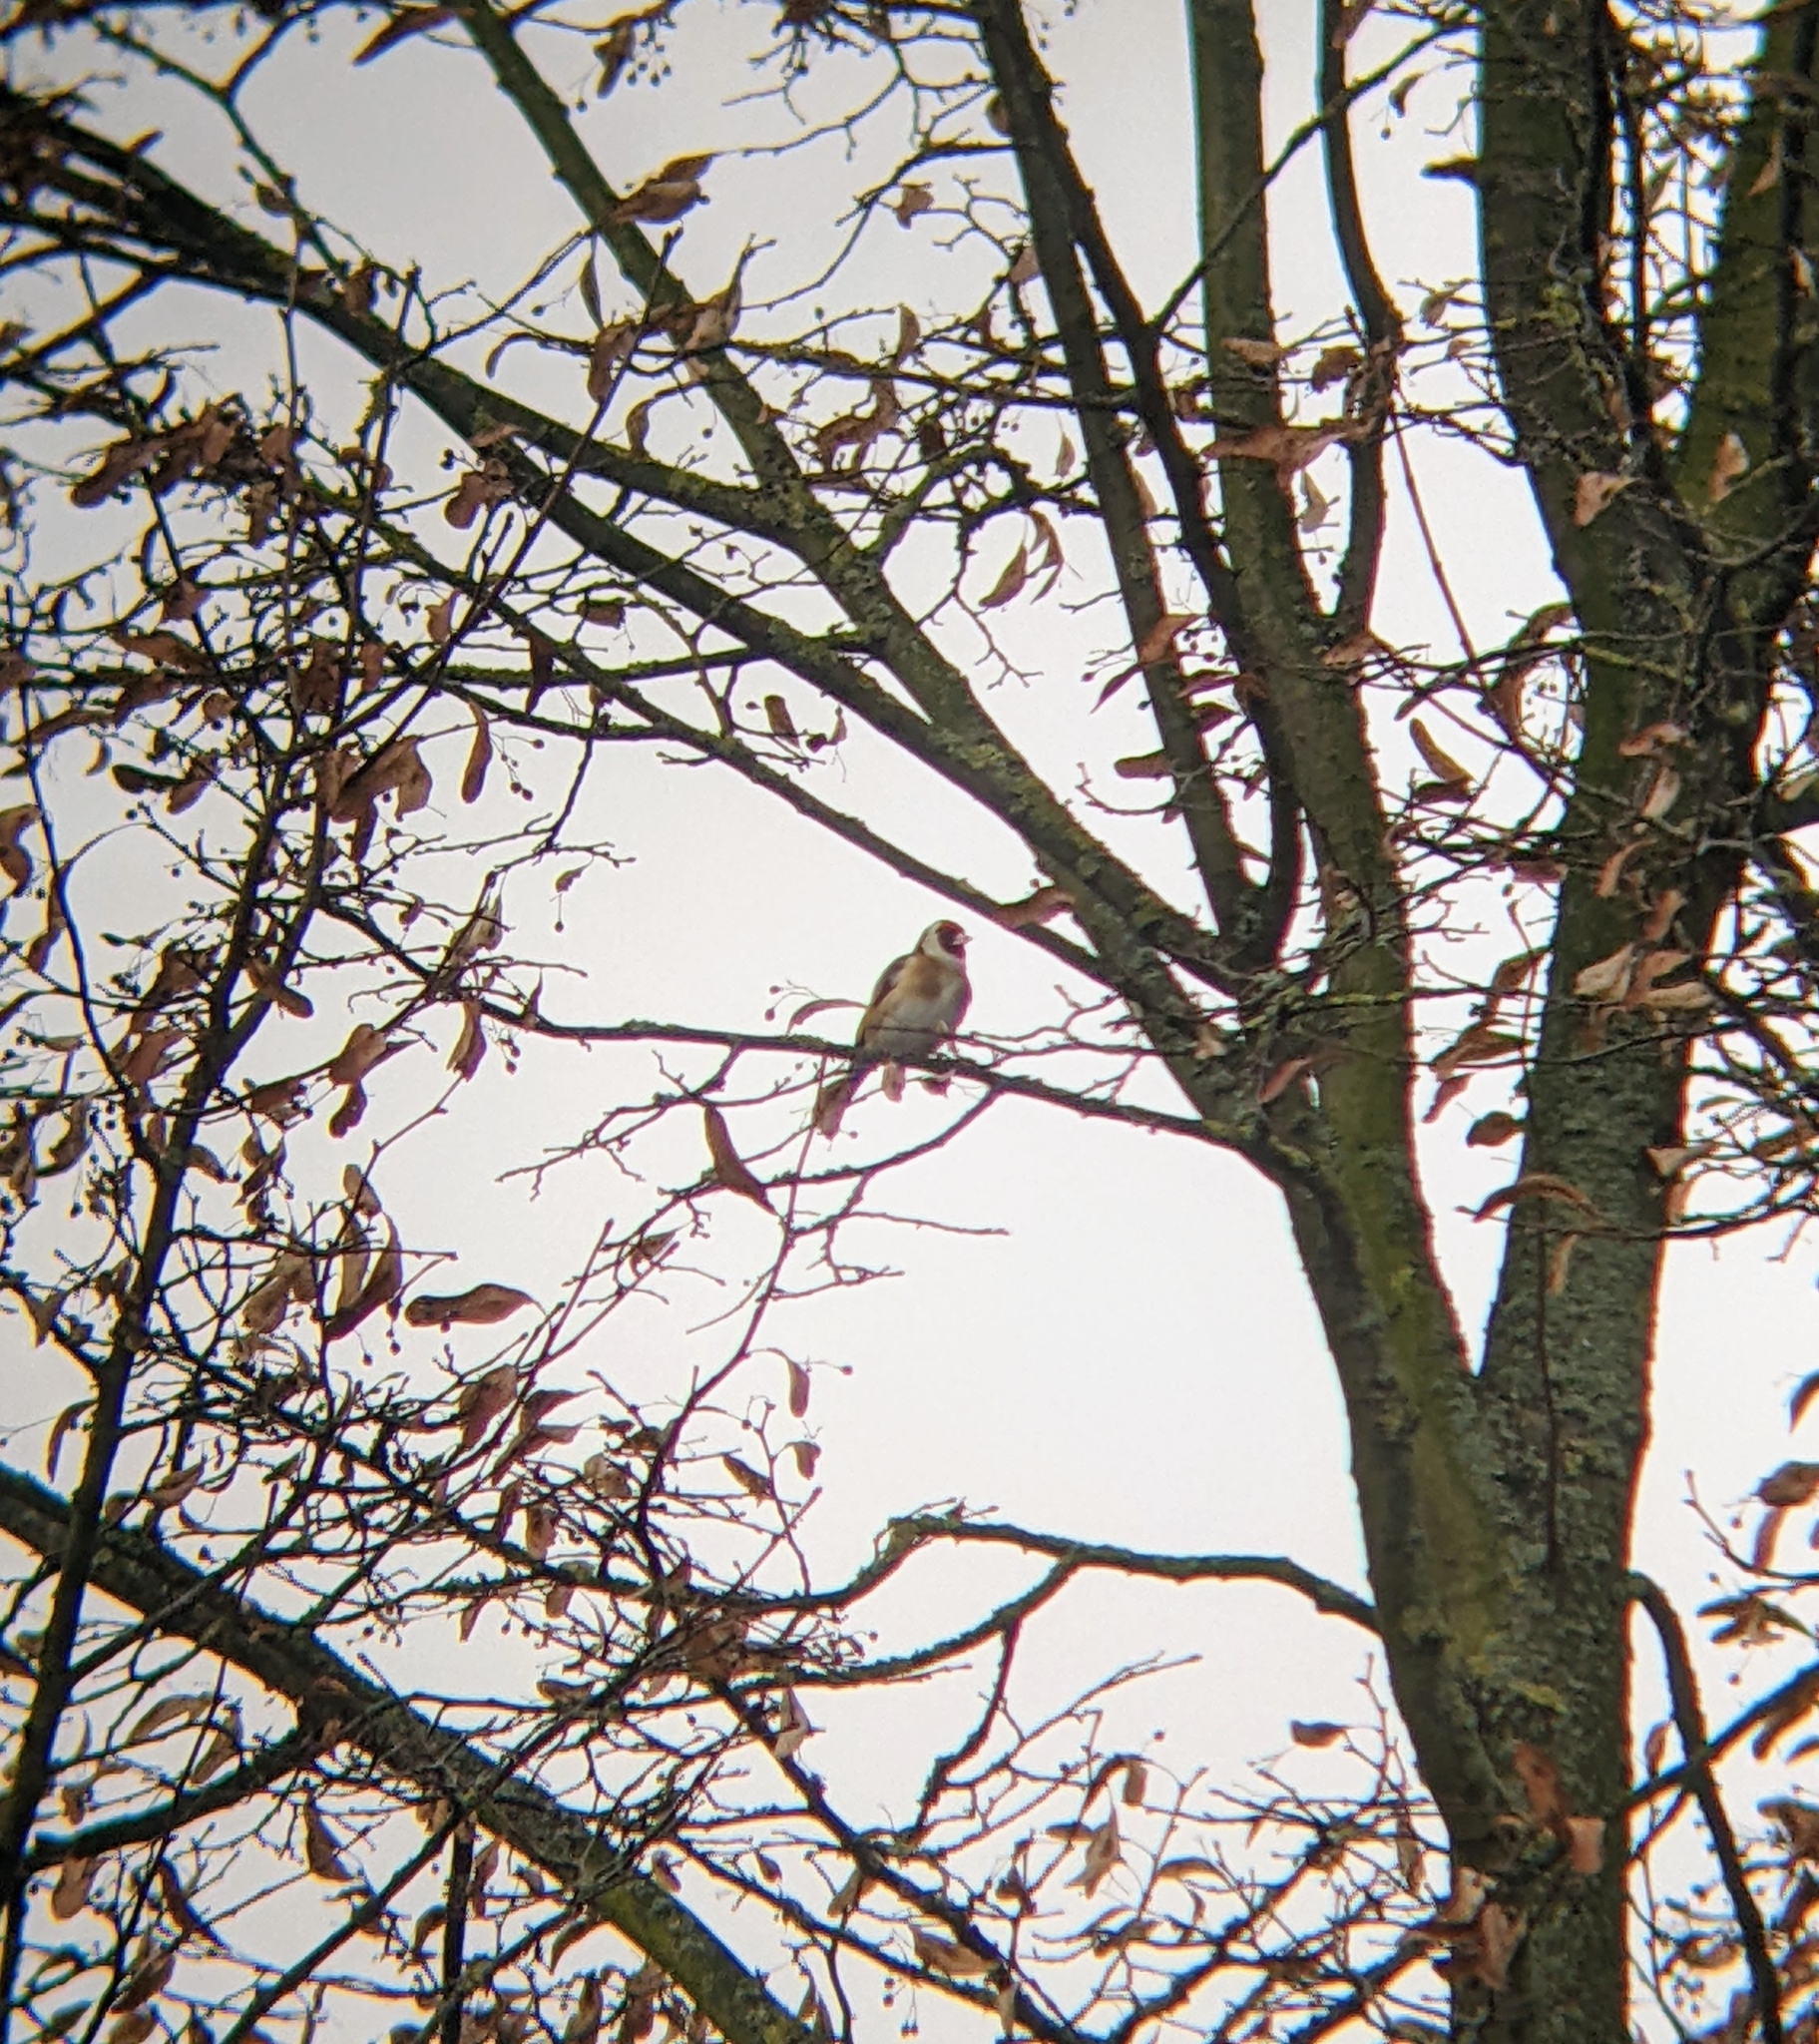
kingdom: Animalia
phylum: Chordata
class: Aves
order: Passeriformes
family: Fringillidae
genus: Carduelis
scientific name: Carduelis carduelis
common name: European goldfinch
